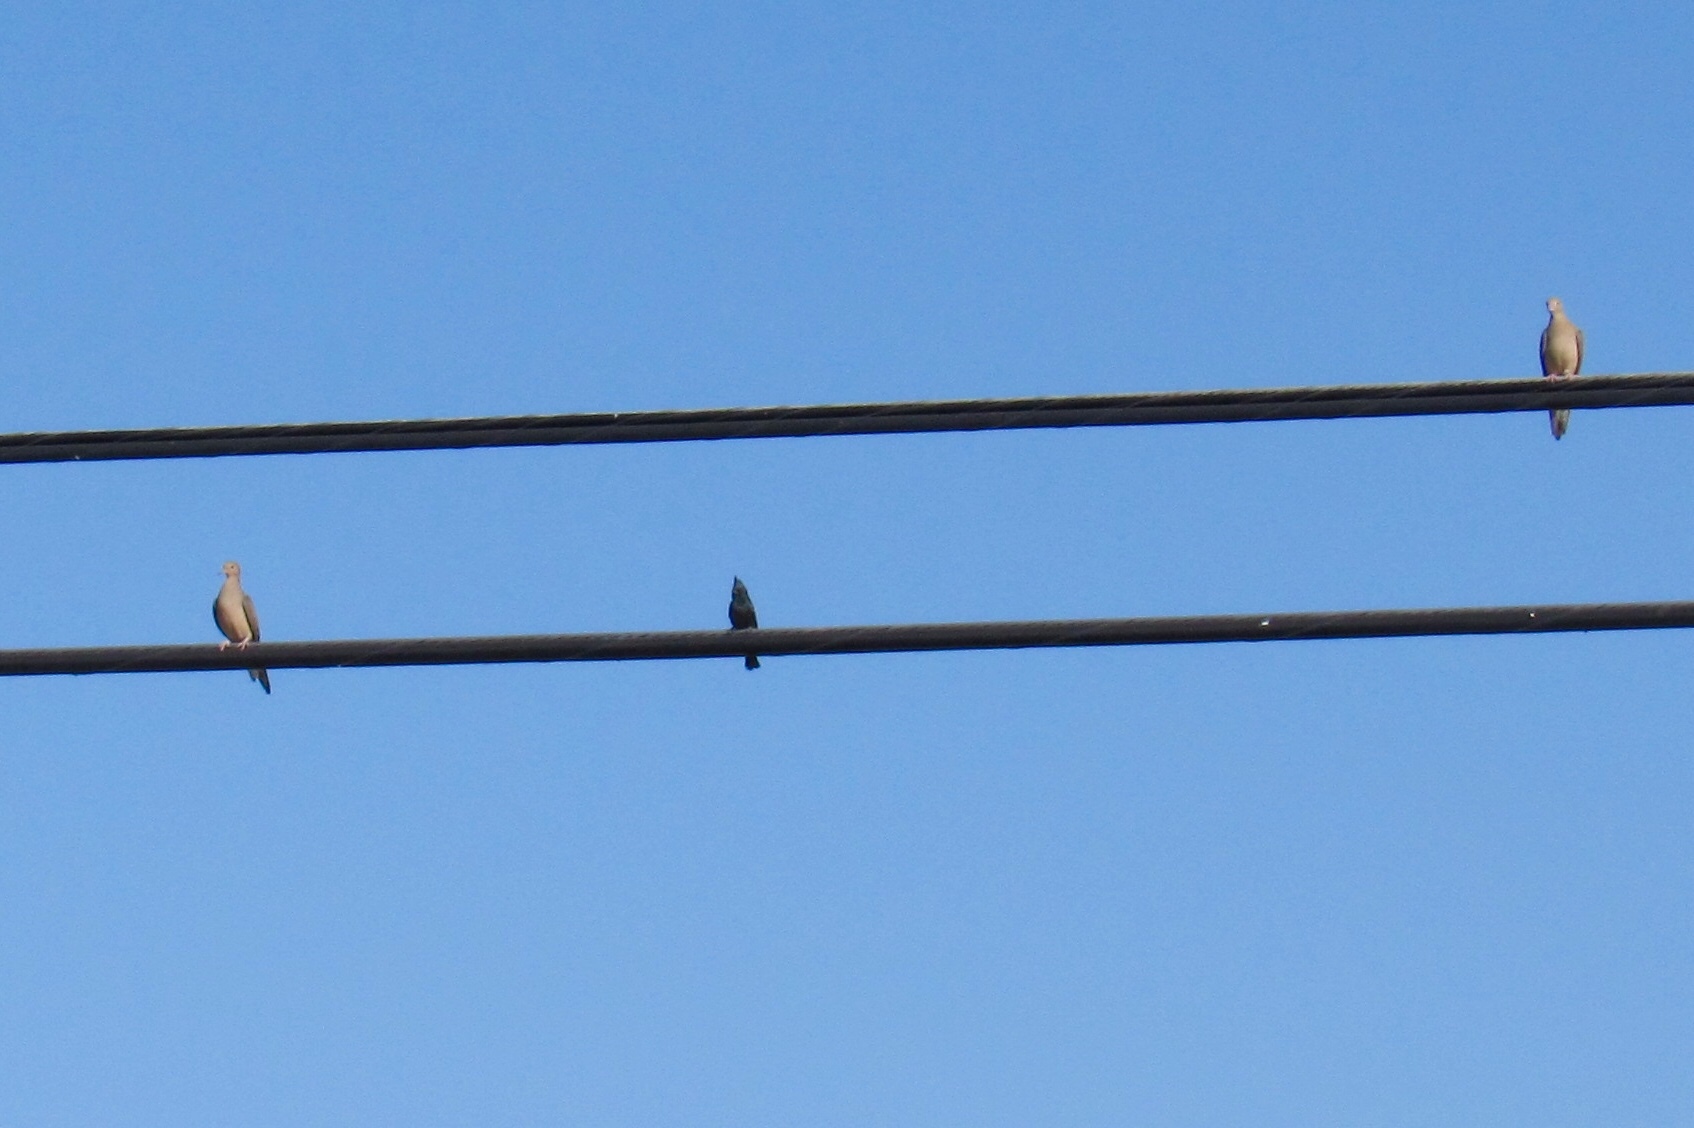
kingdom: Animalia
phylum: Chordata
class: Aves
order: Passeriformes
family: Ptilogonatidae
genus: Phainopepla
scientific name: Phainopepla nitens
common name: Phainopepla
